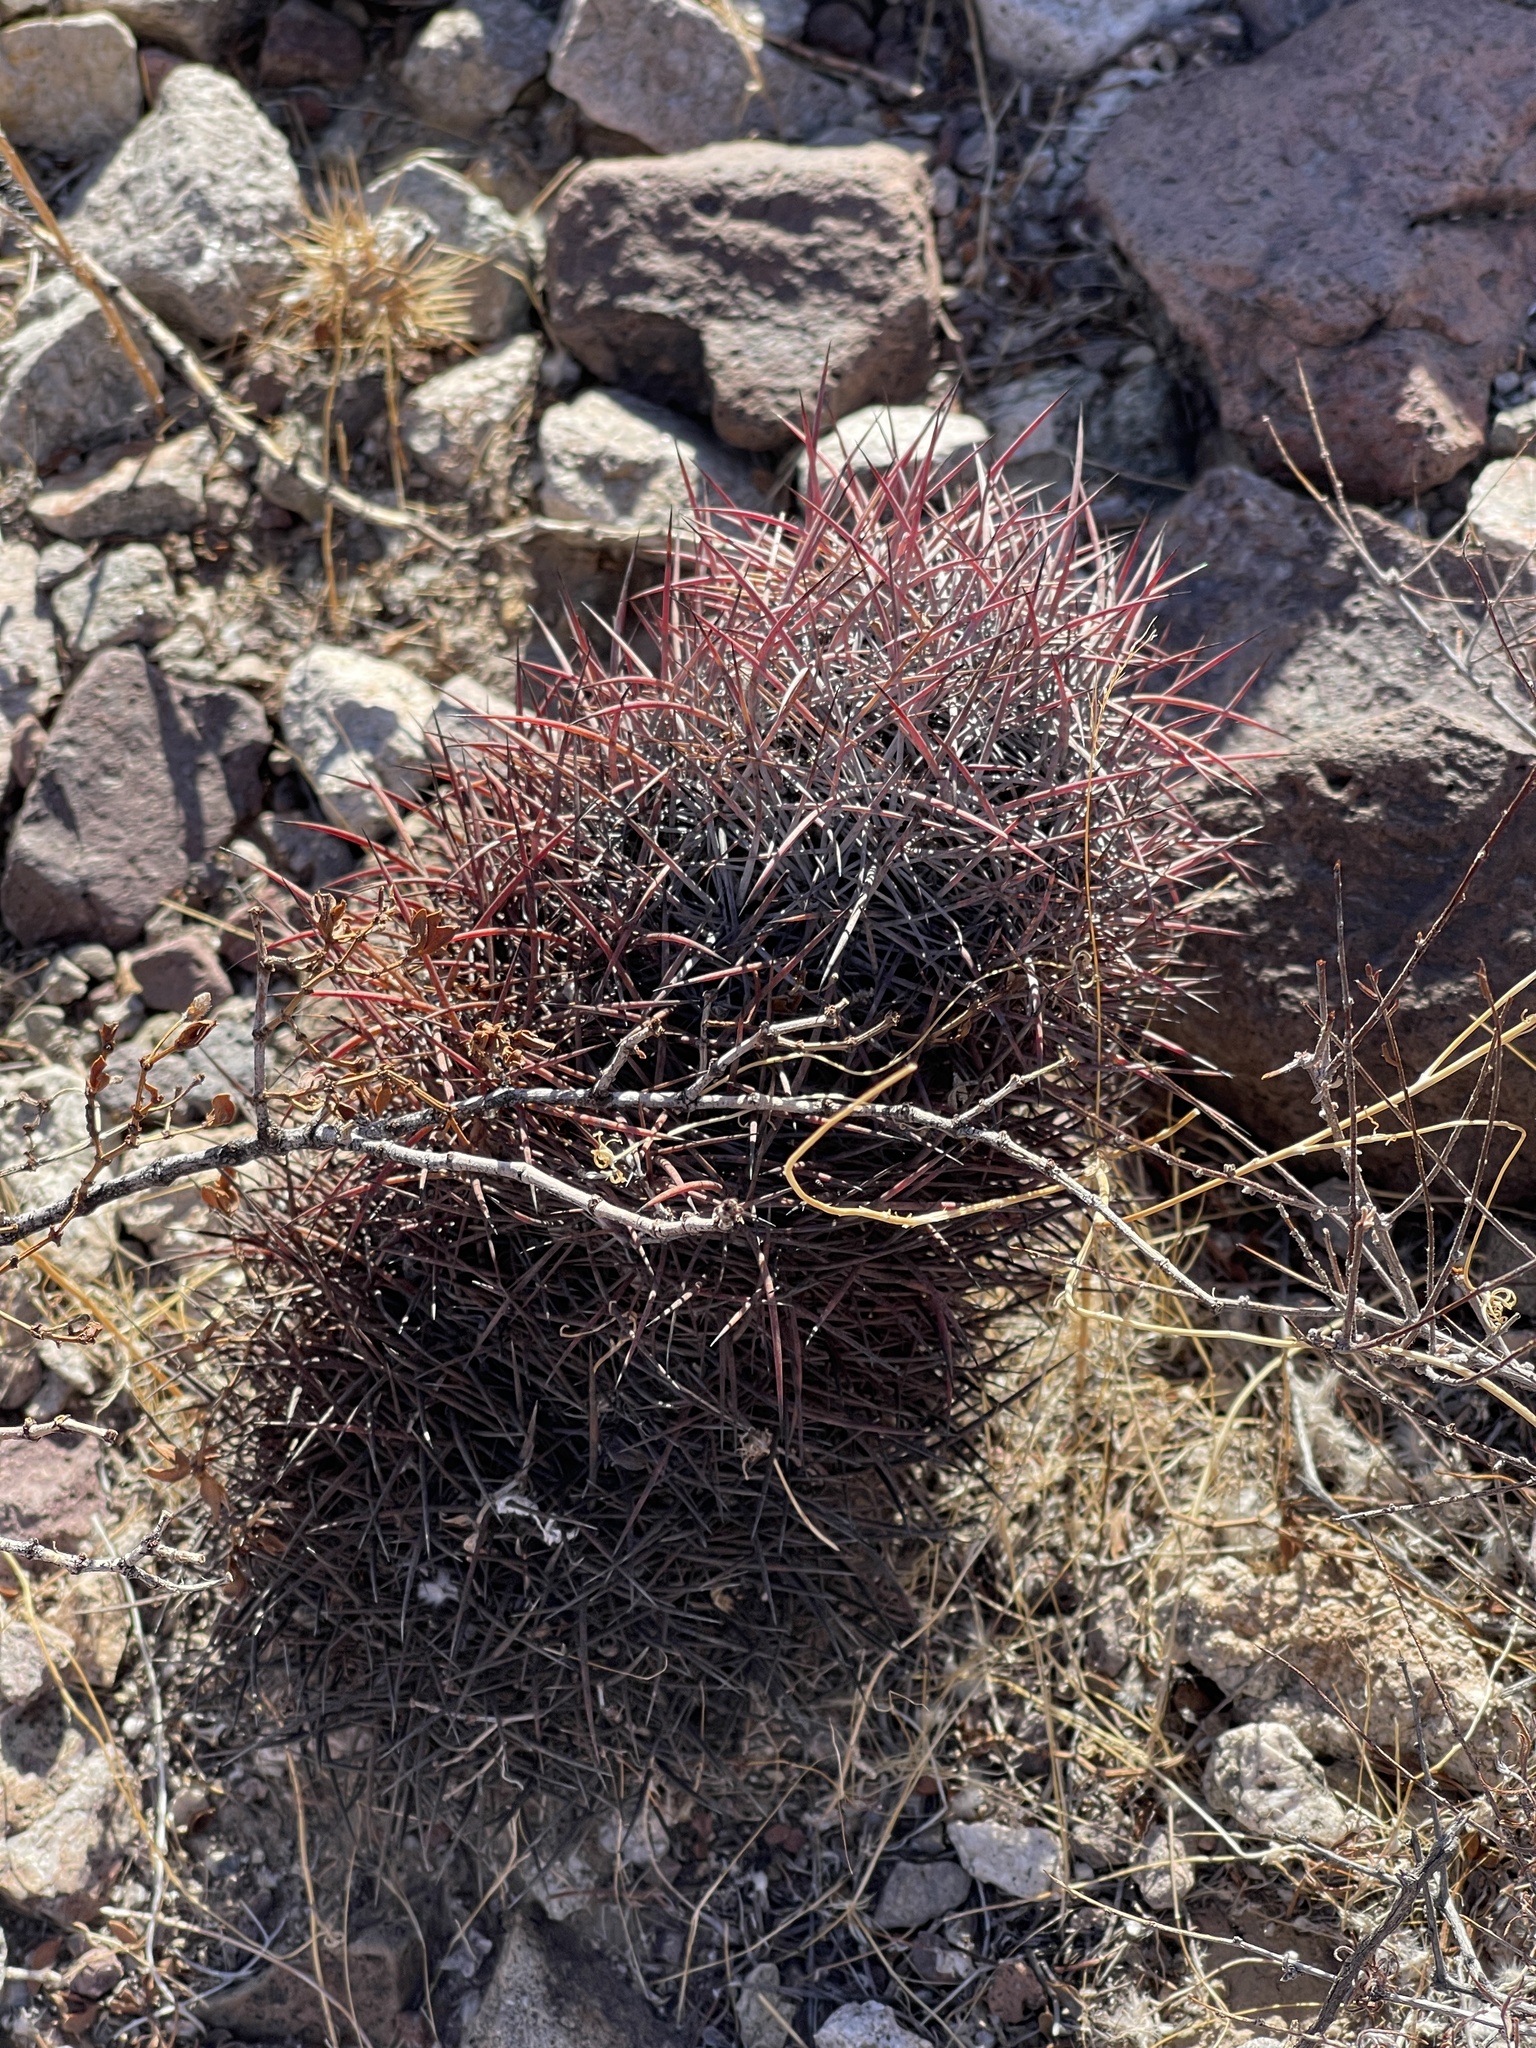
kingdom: Plantae
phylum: Tracheophyta
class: Magnoliopsida
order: Caryophyllales
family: Cactaceae
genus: Sclerocactus
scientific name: Sclerocactus johnsonii
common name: Eight-spine fishhook cactus
